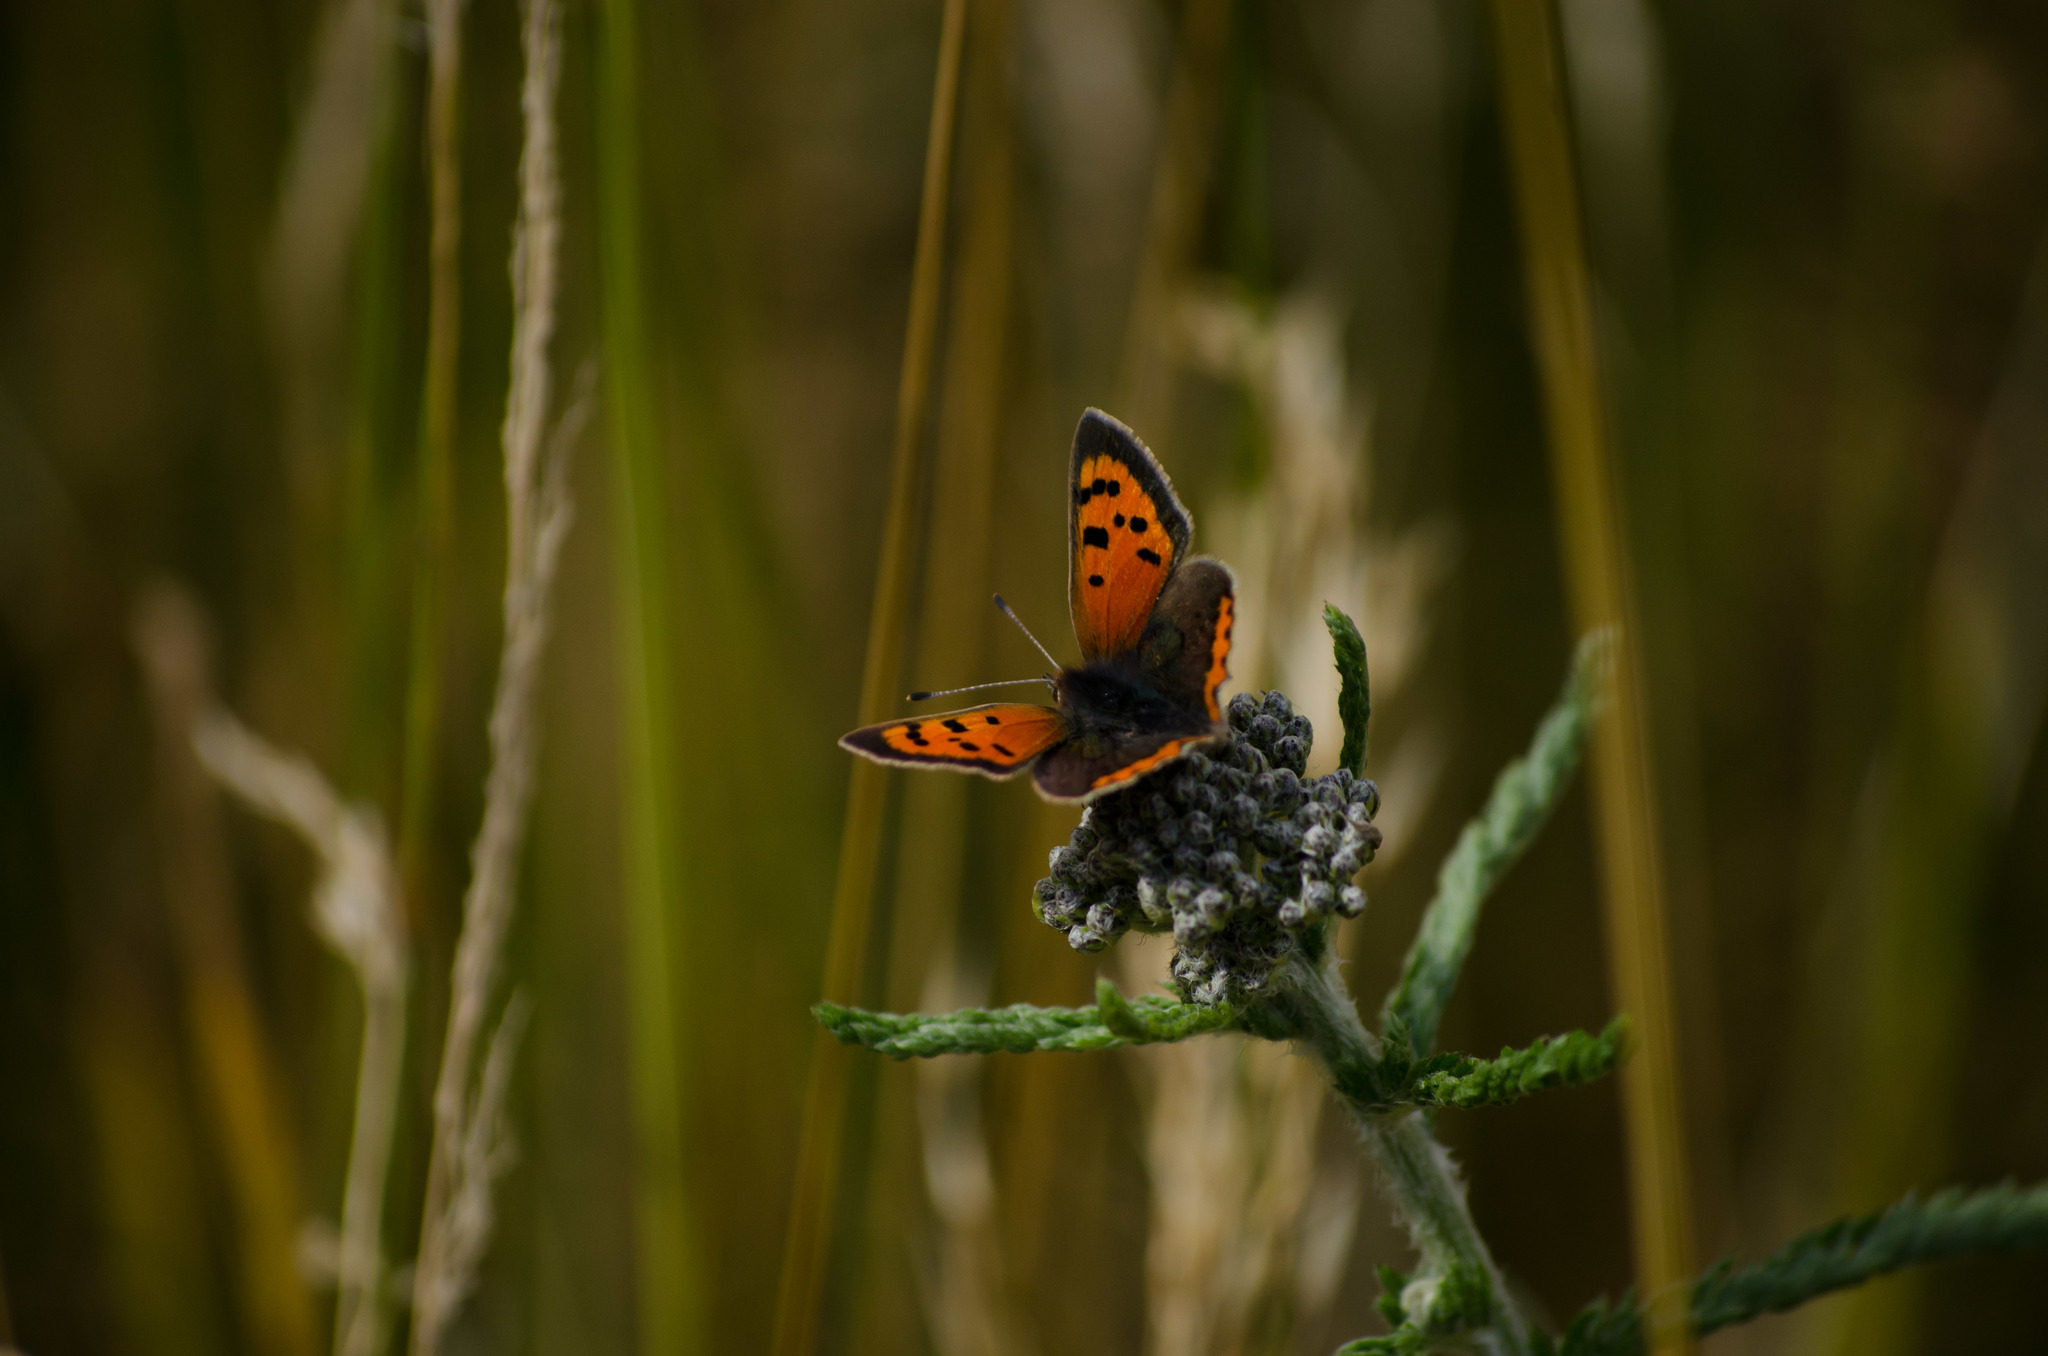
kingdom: Animalia
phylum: Arthropoda
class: Insecta
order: Lepidoptera
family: Lycaenidae
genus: Lycaena
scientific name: Lycaena phlaeas
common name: Small copper
